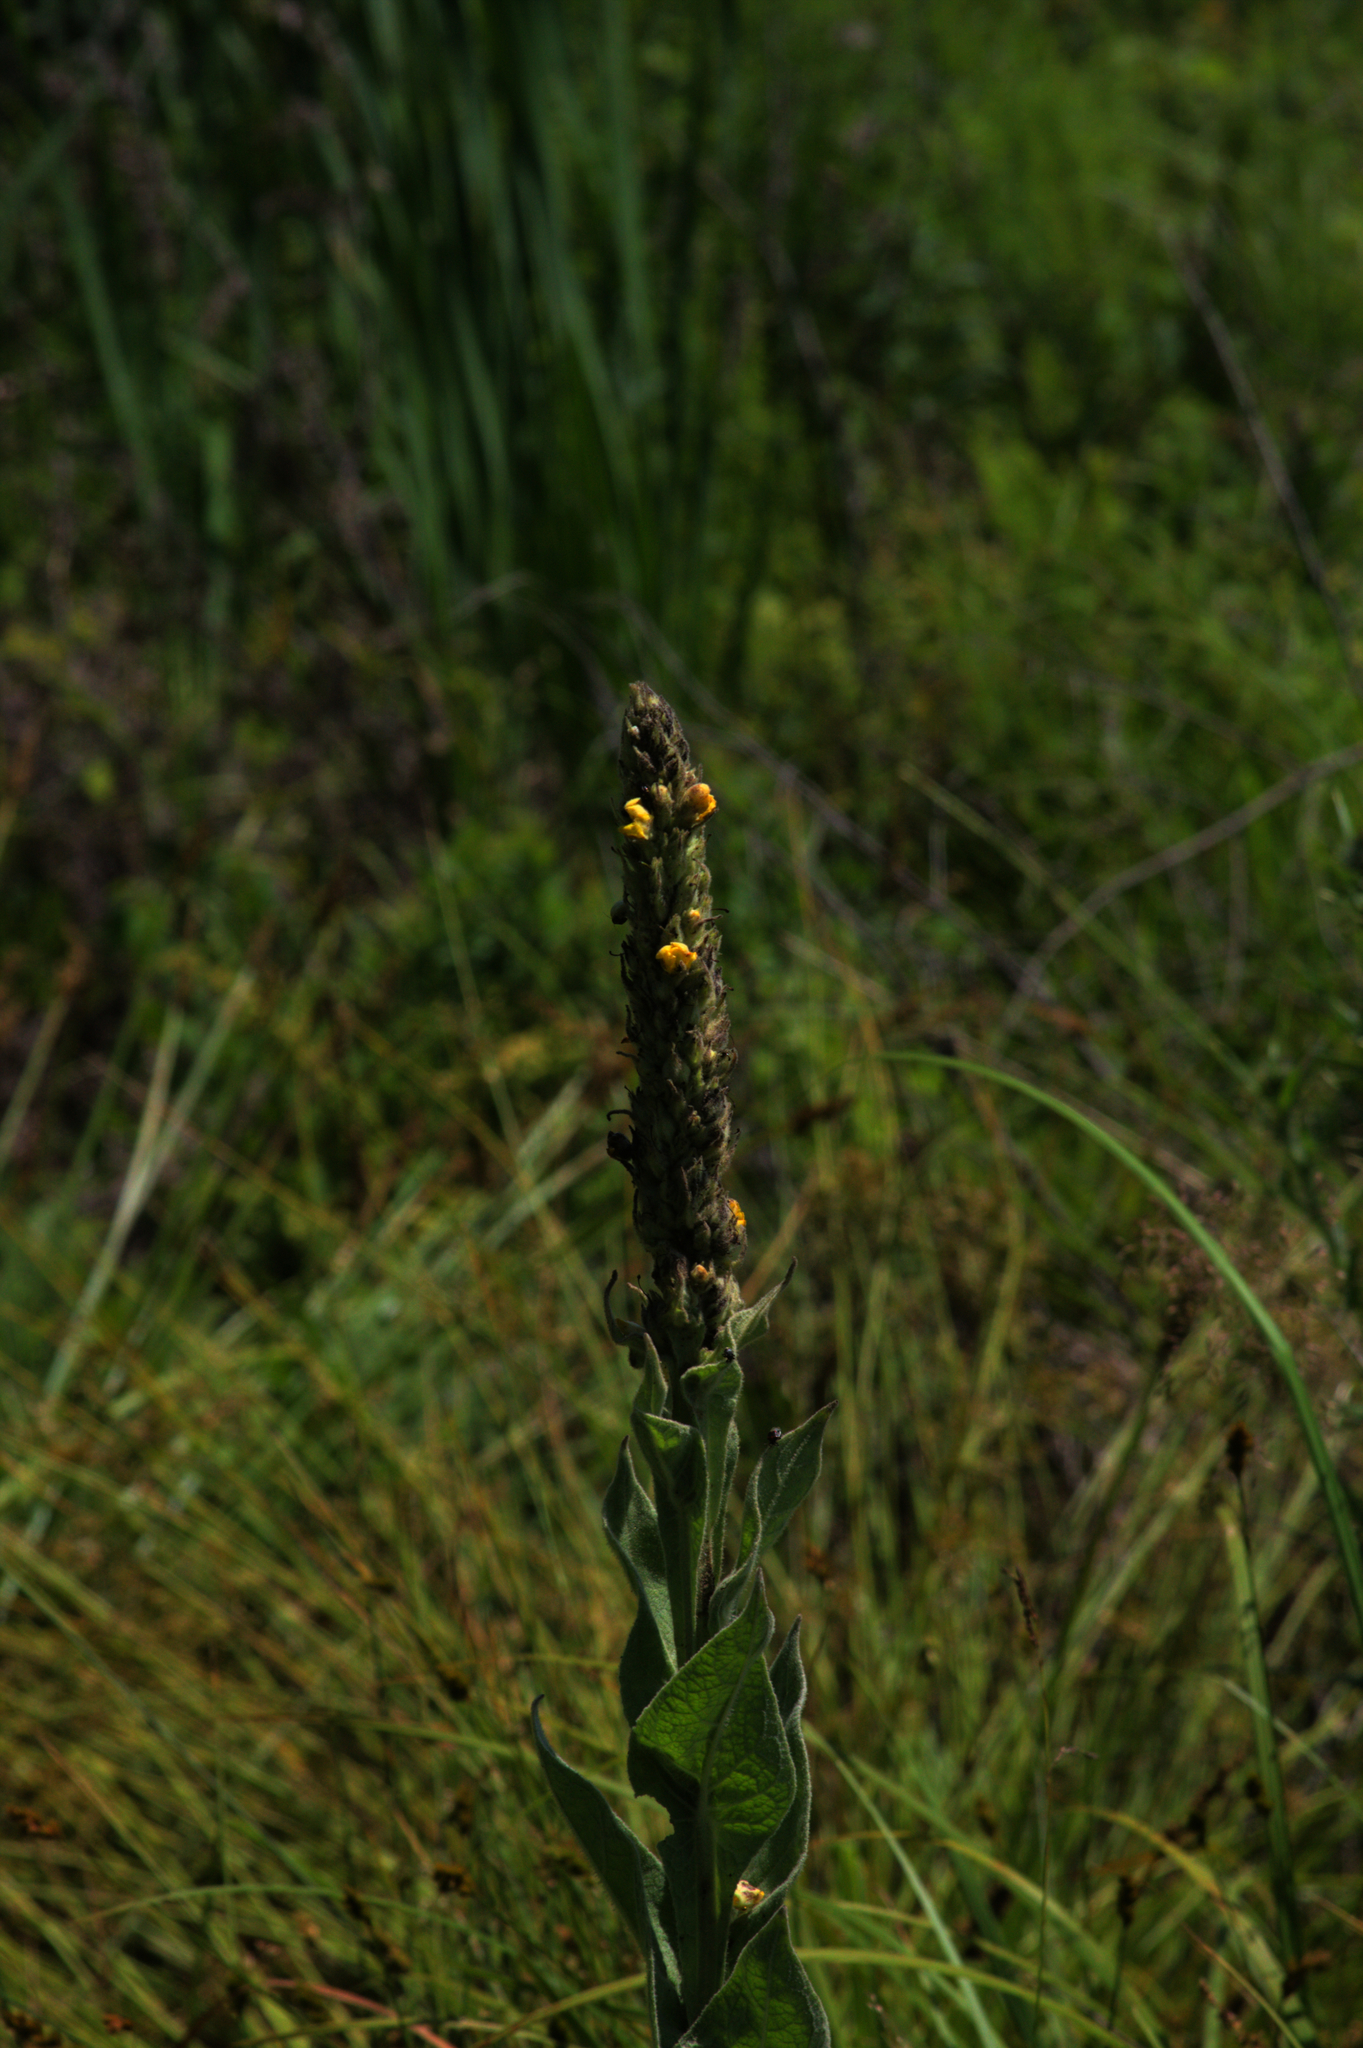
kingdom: Plantae
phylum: Tracheophyta
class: Magnoliopsida
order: Lamiales
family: Scrophulariaceae
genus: Verbascum
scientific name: Verbascum thapsus
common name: Common mullein
